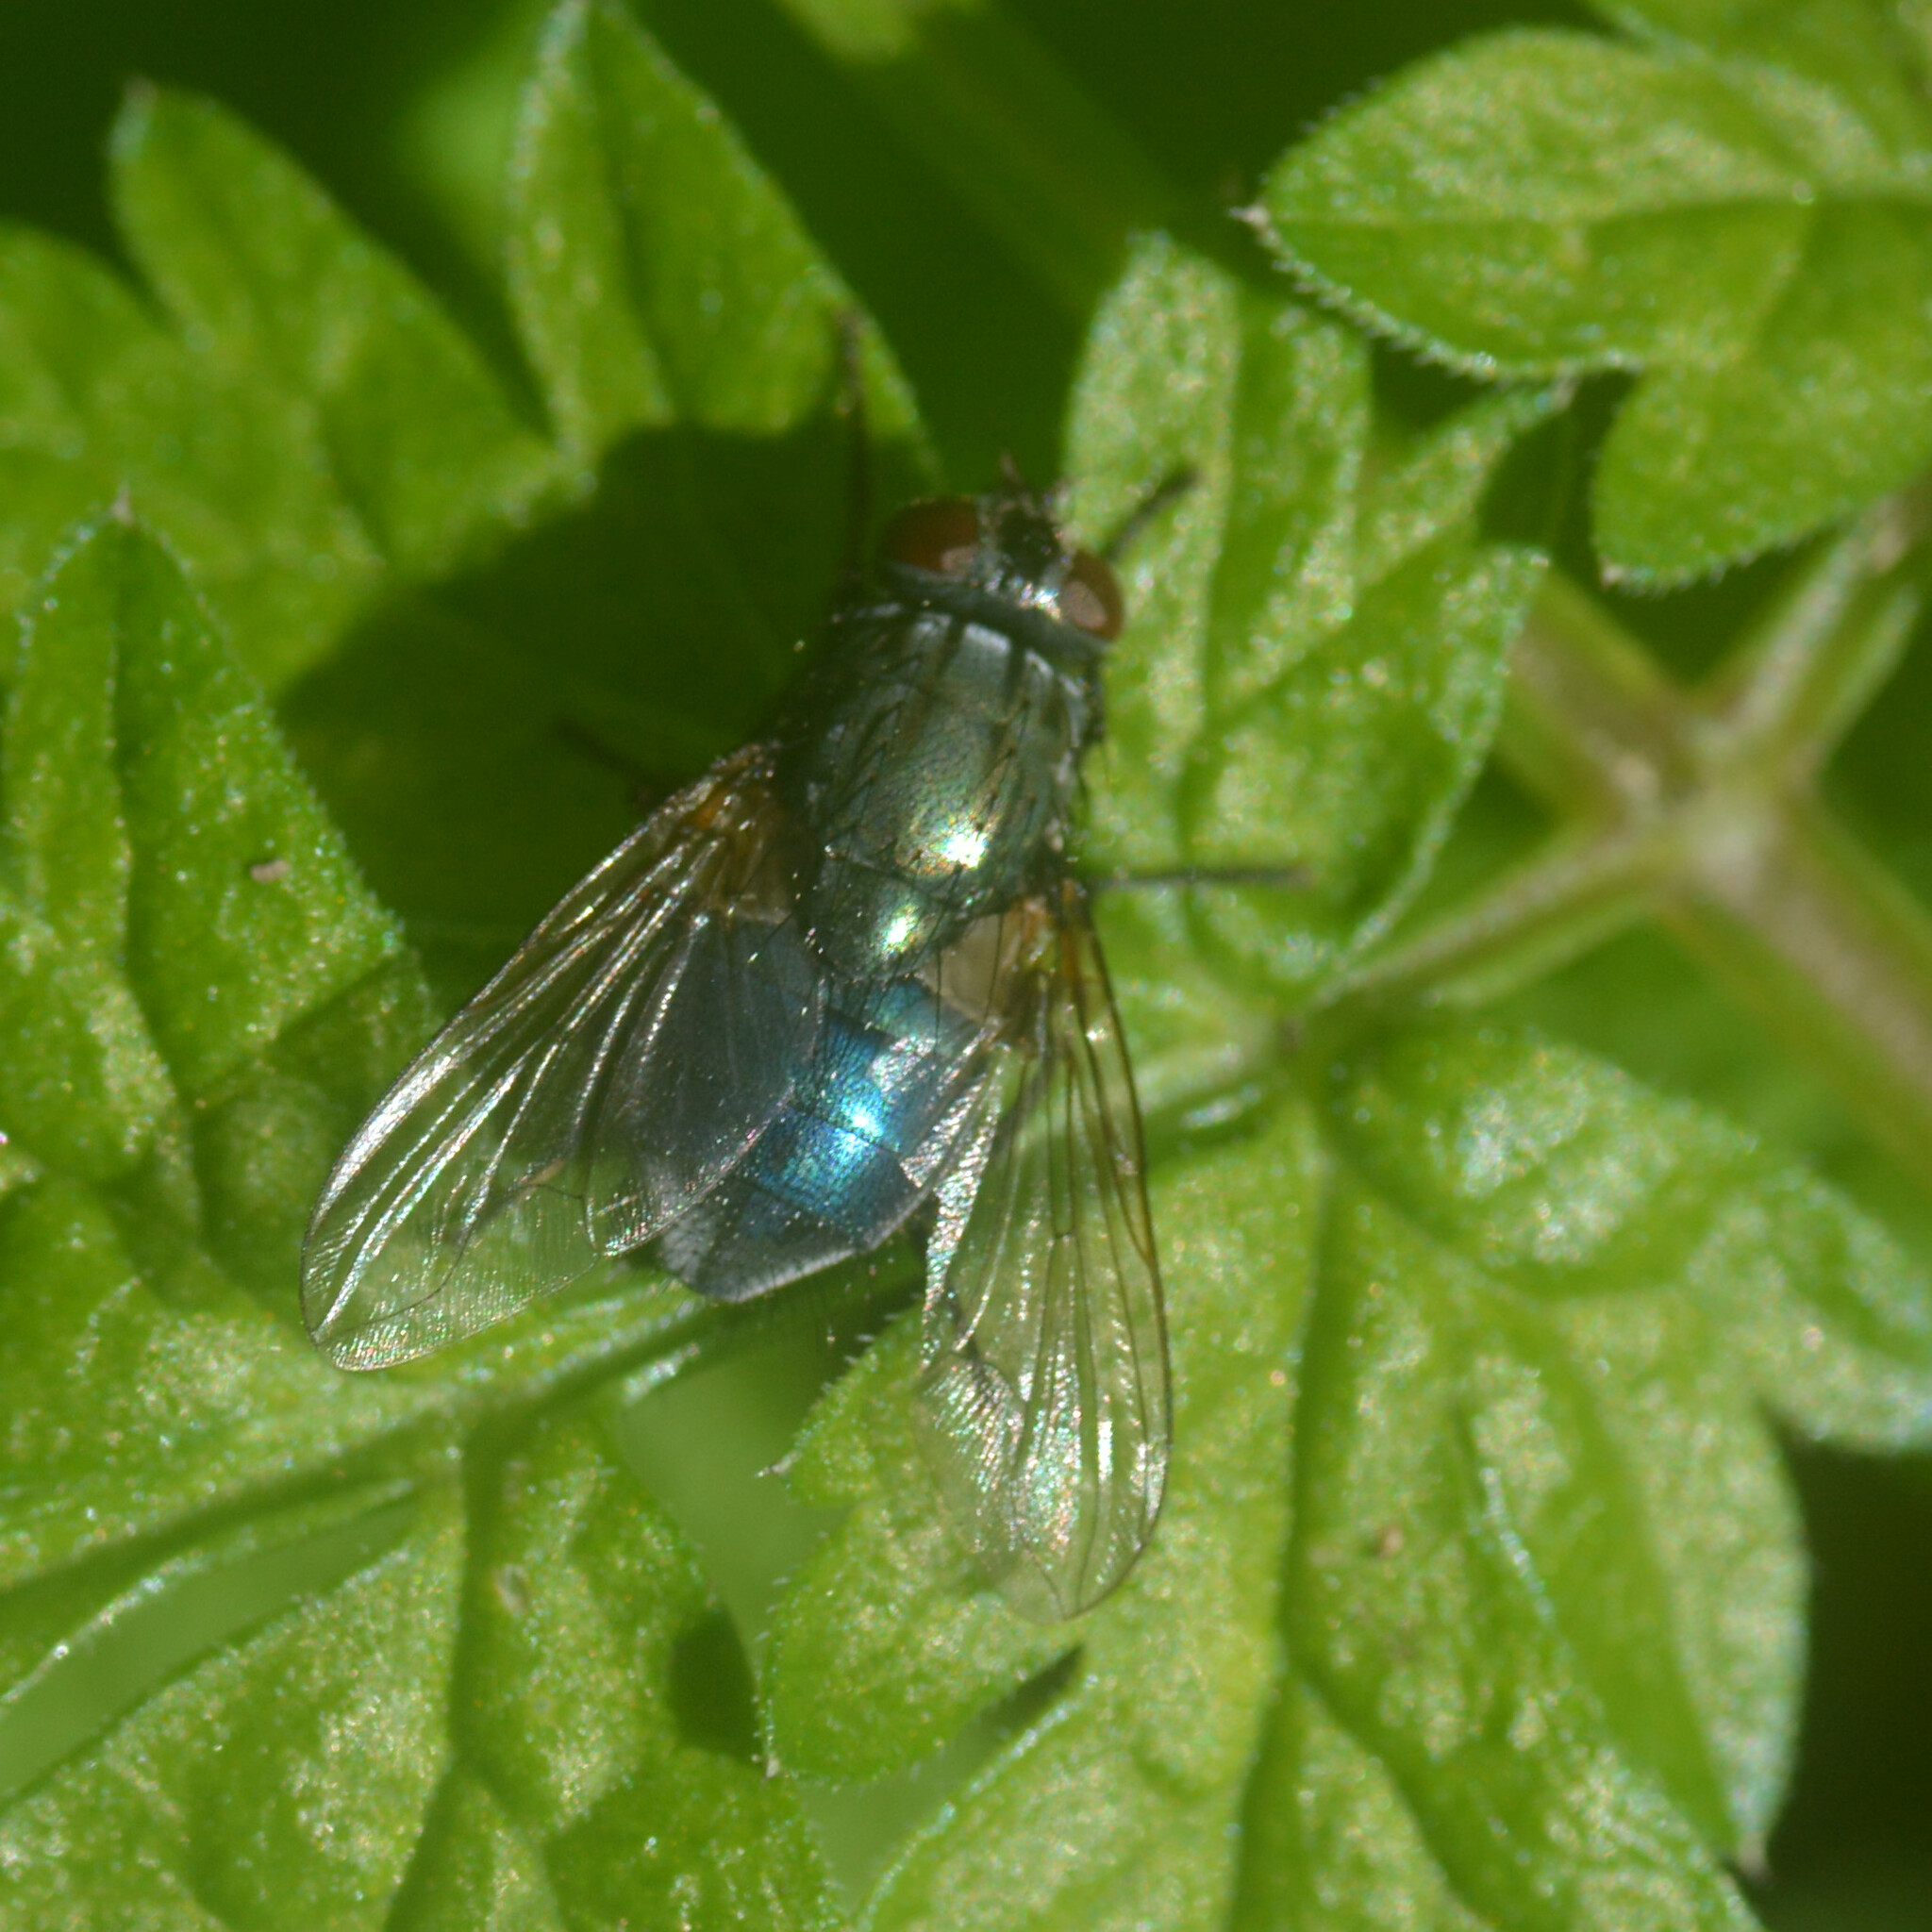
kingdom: Animalia
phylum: Arthropoda
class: Insecta
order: Diptera
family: Muscidae
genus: Dasyphora
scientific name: Dasyphora cyanella
